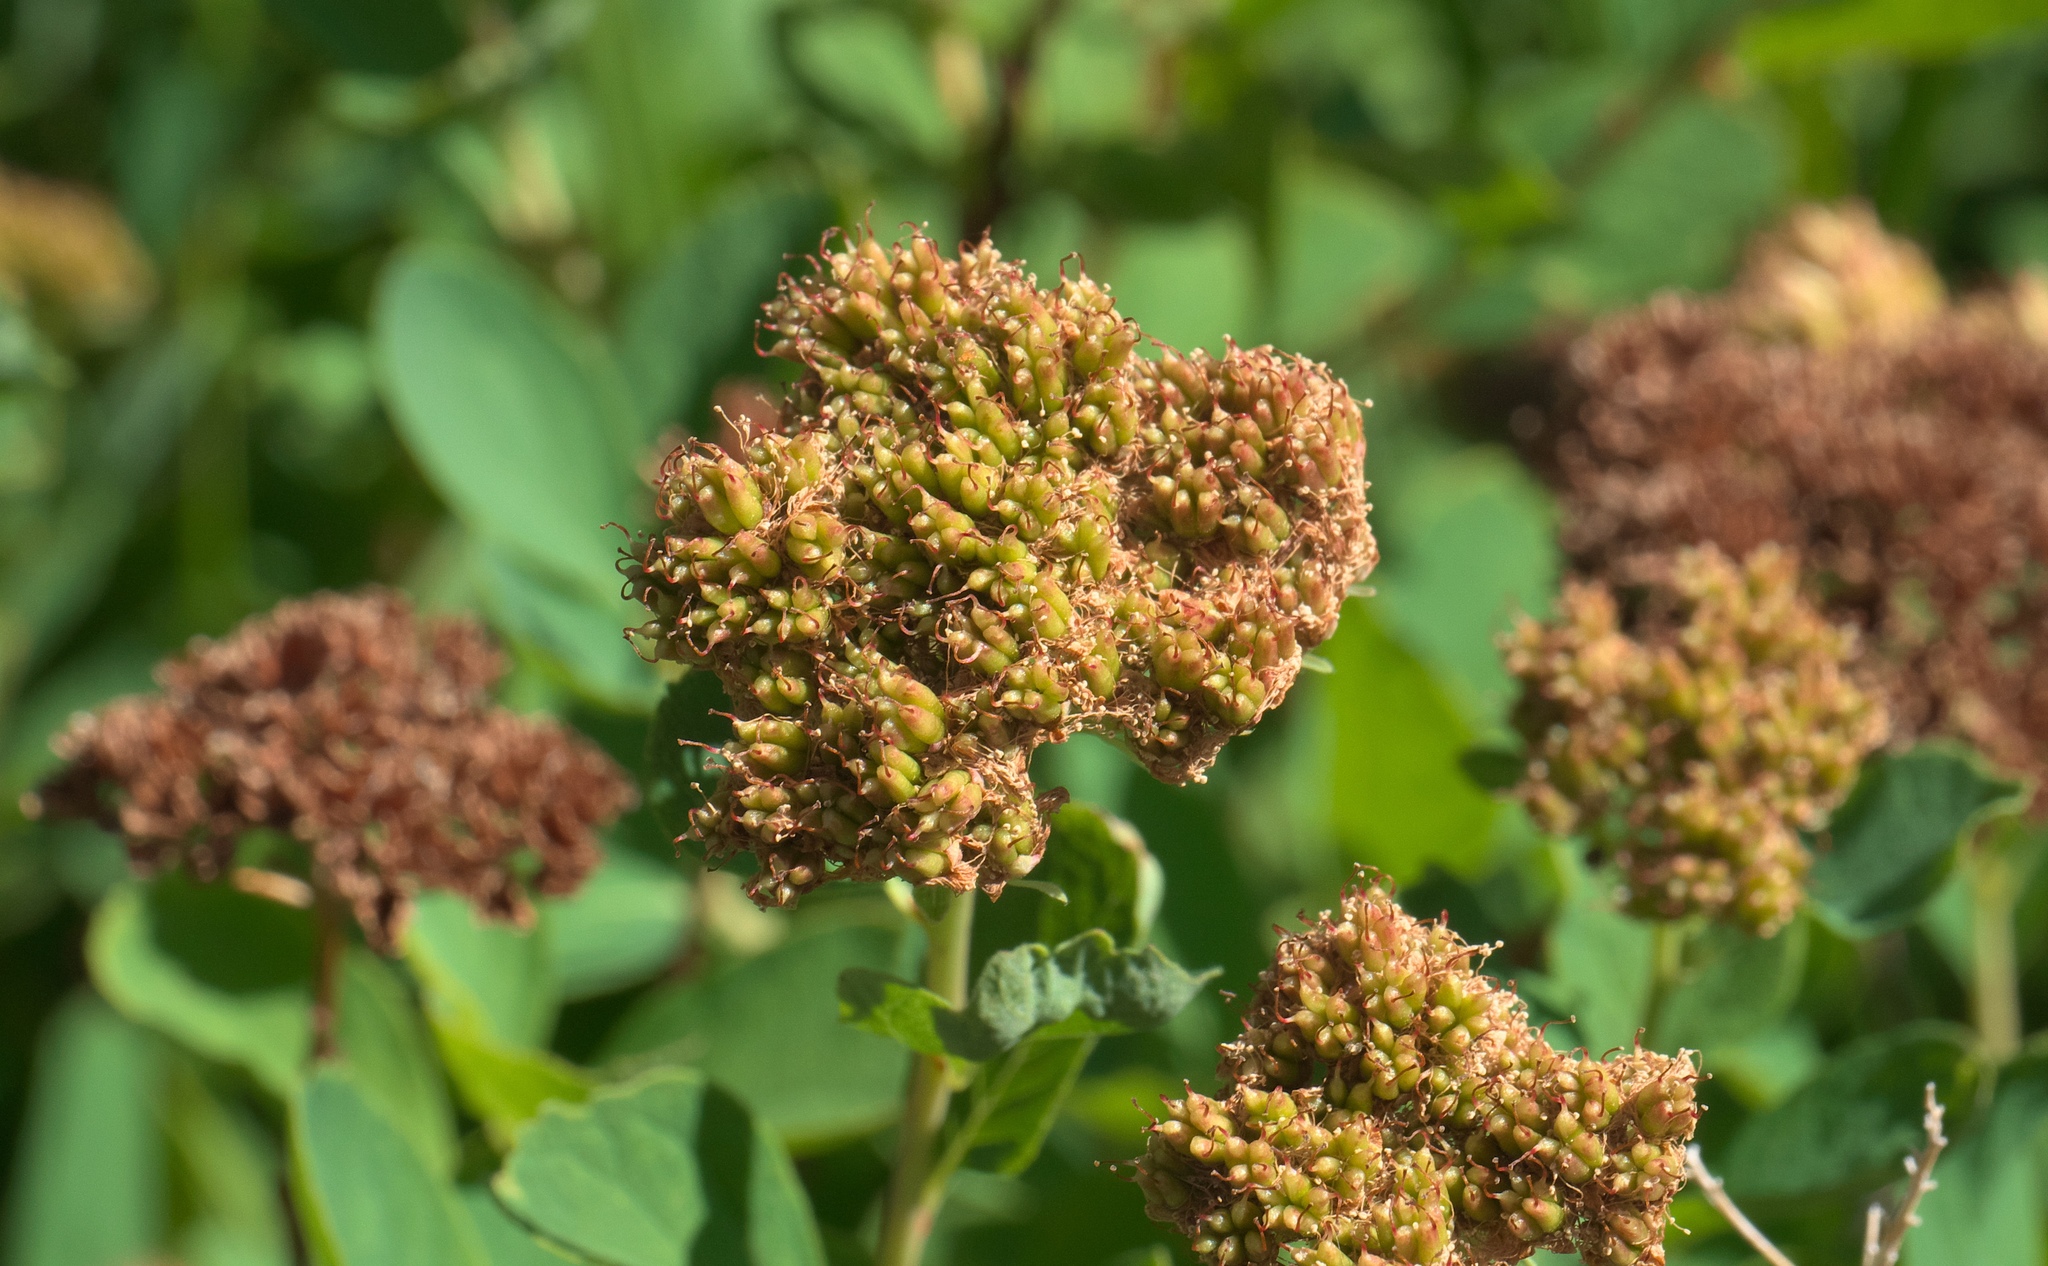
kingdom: Plantae
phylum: Tracheophyta
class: Magnoliopsida
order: Rosales
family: Rosaceae
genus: Spiraea
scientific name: Spiraea splendens
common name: Subalpine meadowsweet
